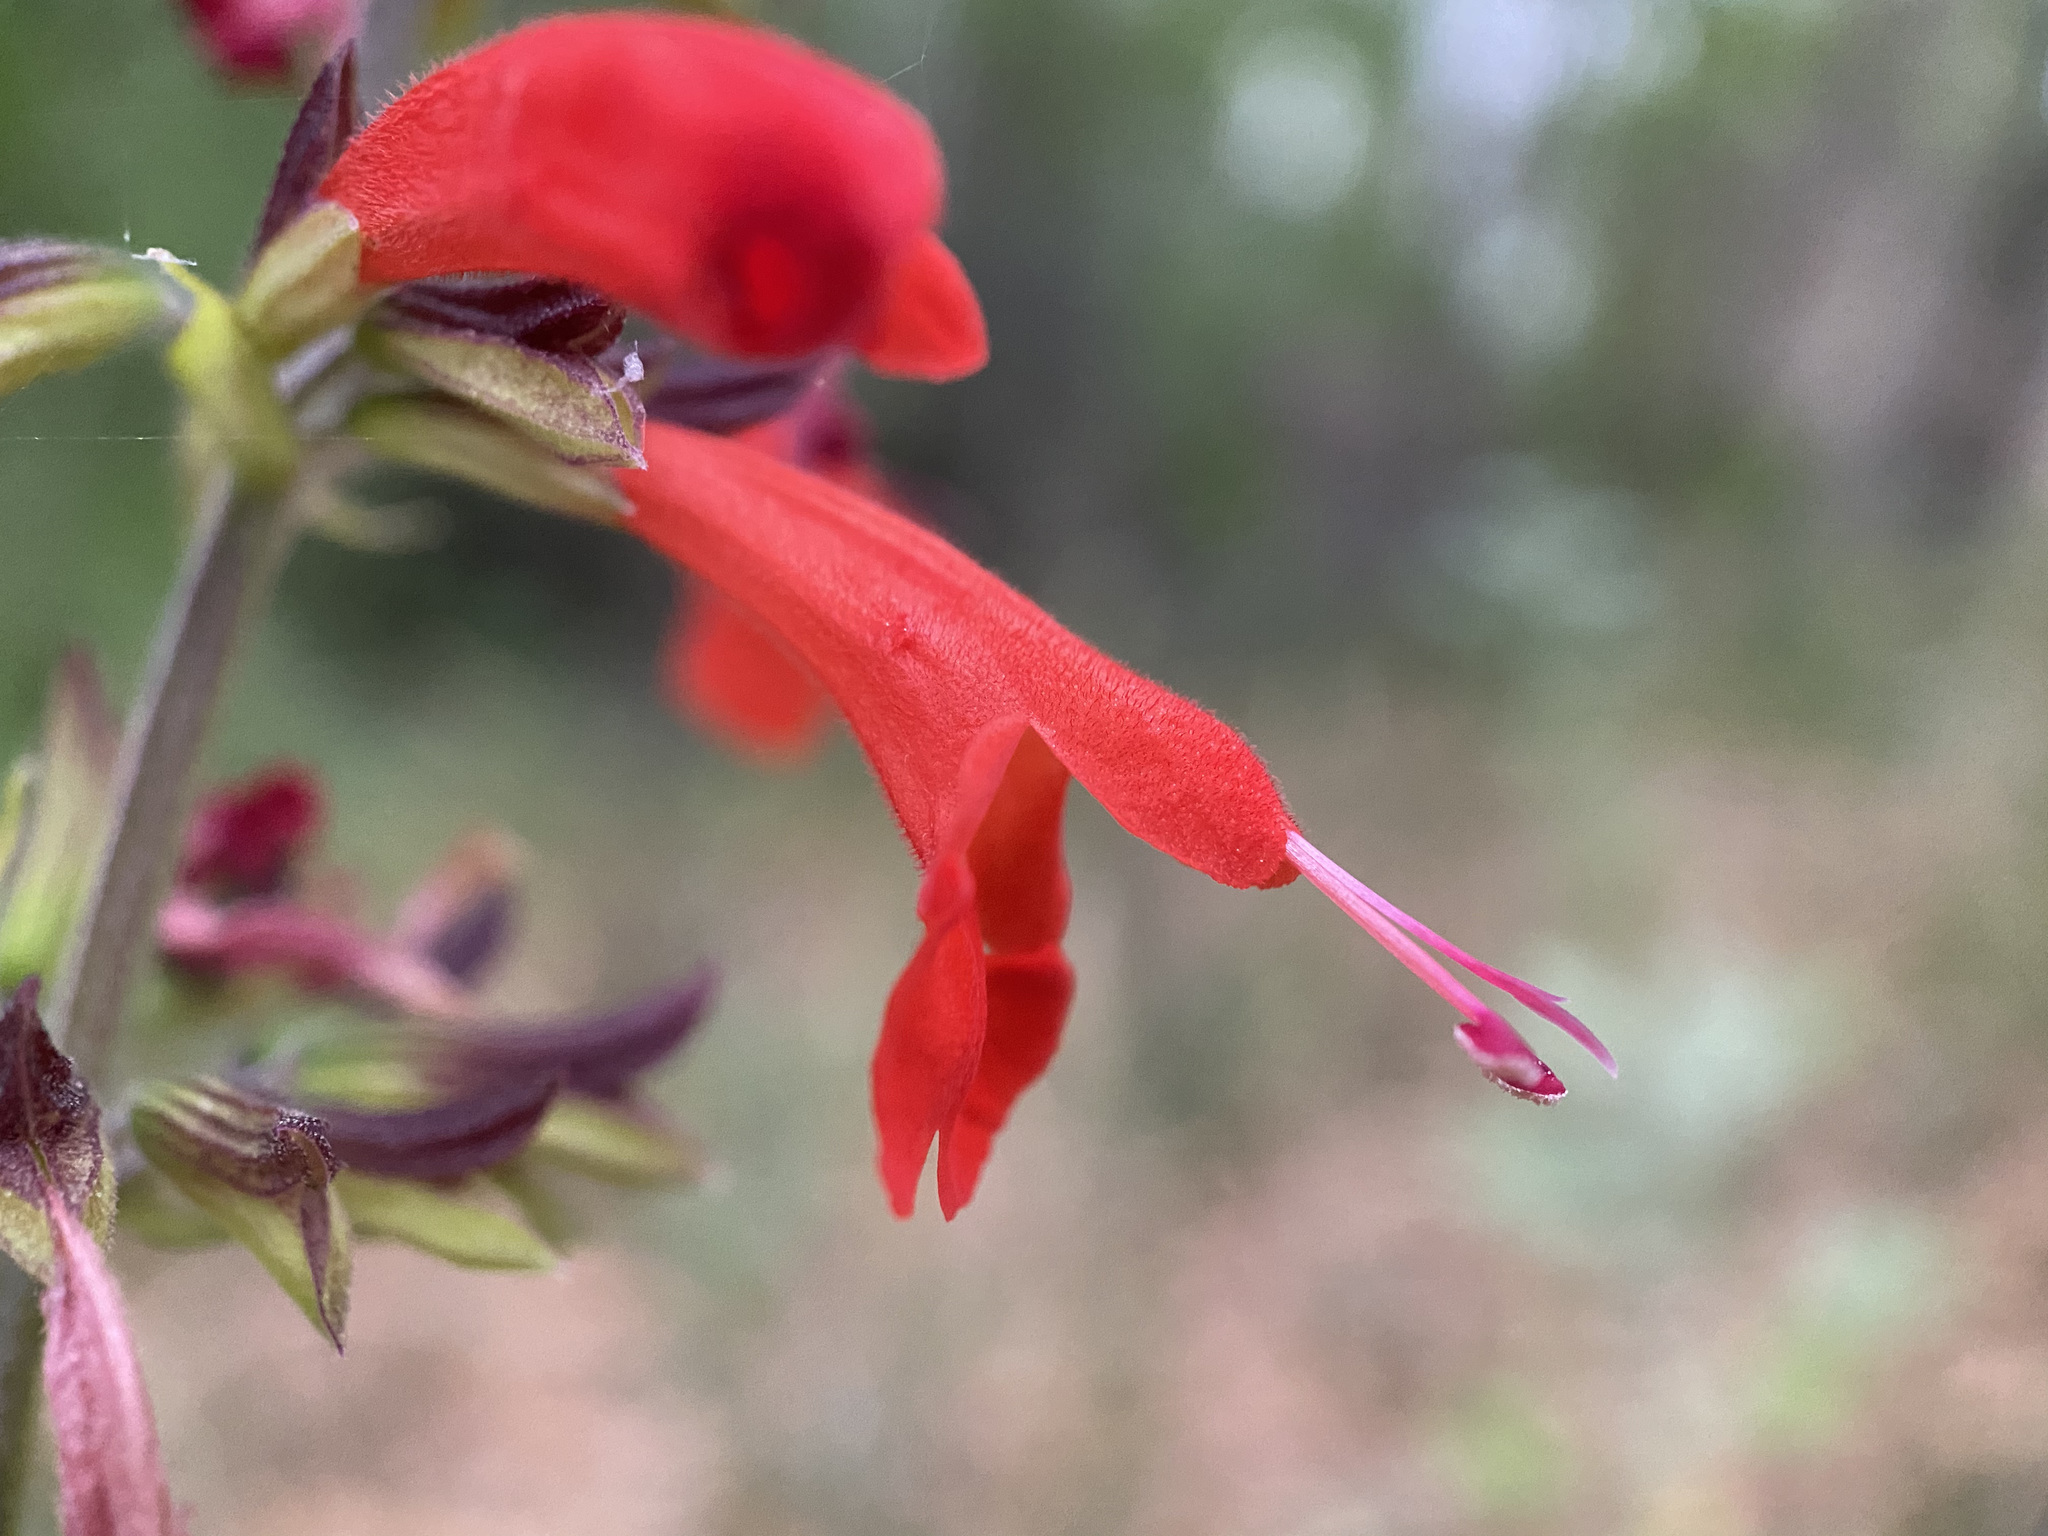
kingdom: Plantae
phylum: Tracheophyta
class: Magnoliopsida
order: Lamiales
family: Lamiaceae
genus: Salvia
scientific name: Salvia coccinea
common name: Blood sage
